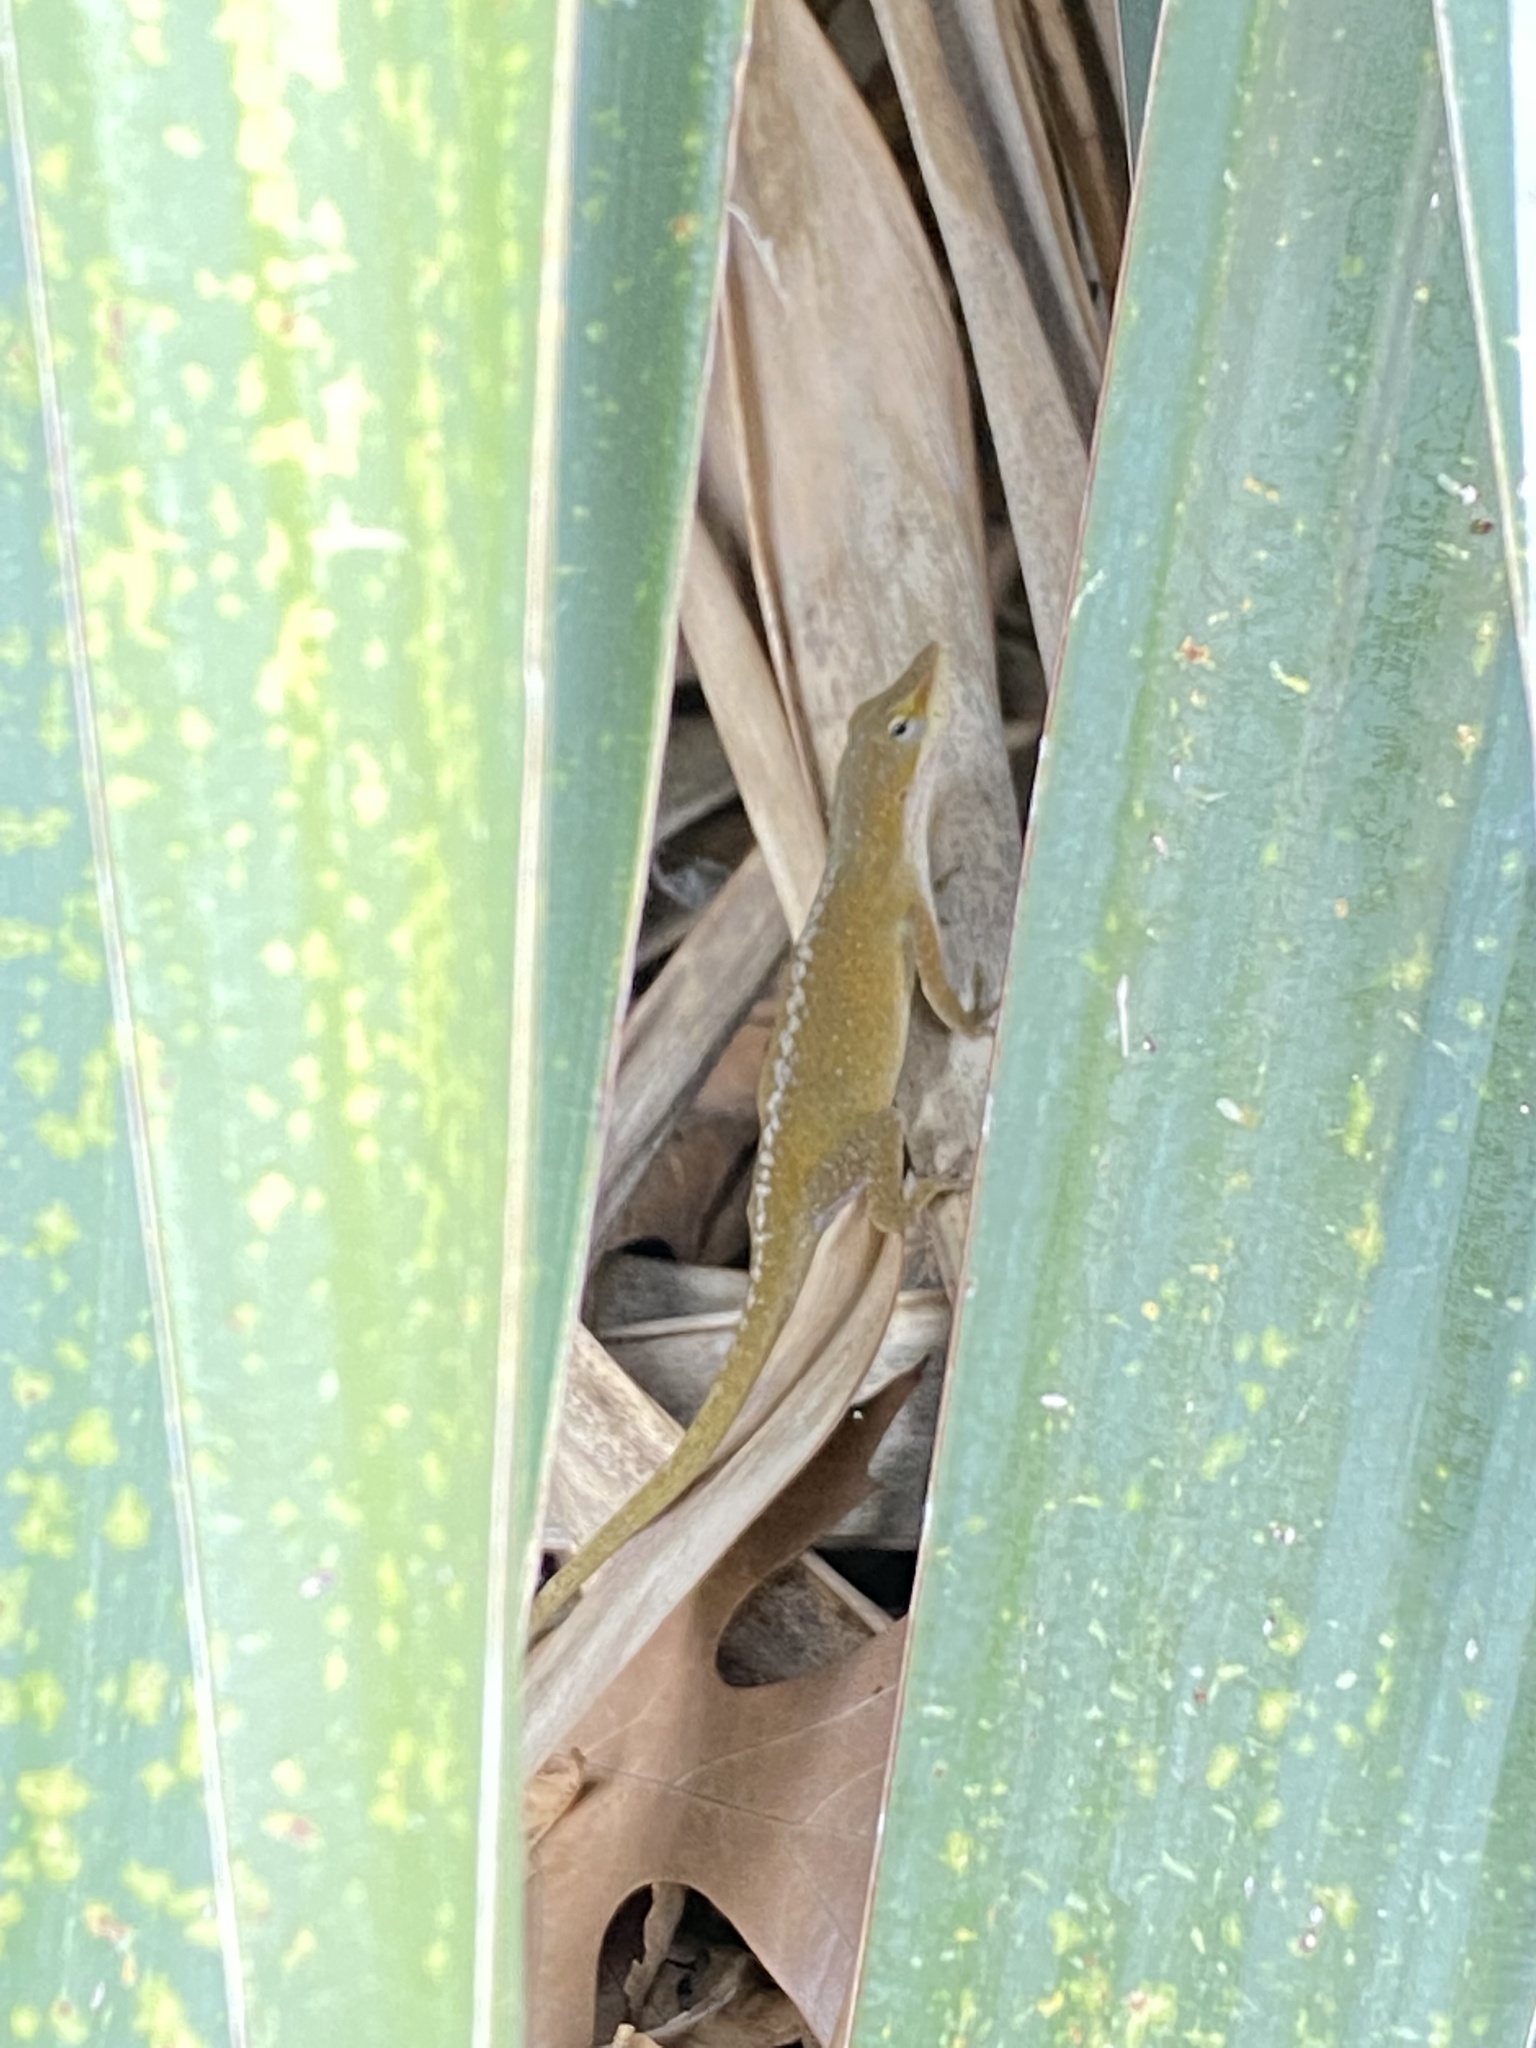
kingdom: Animalia
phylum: Chordata
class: Squamata
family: Dactyloidae
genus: Anolis
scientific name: Anolis carolinensis
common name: Green anole
